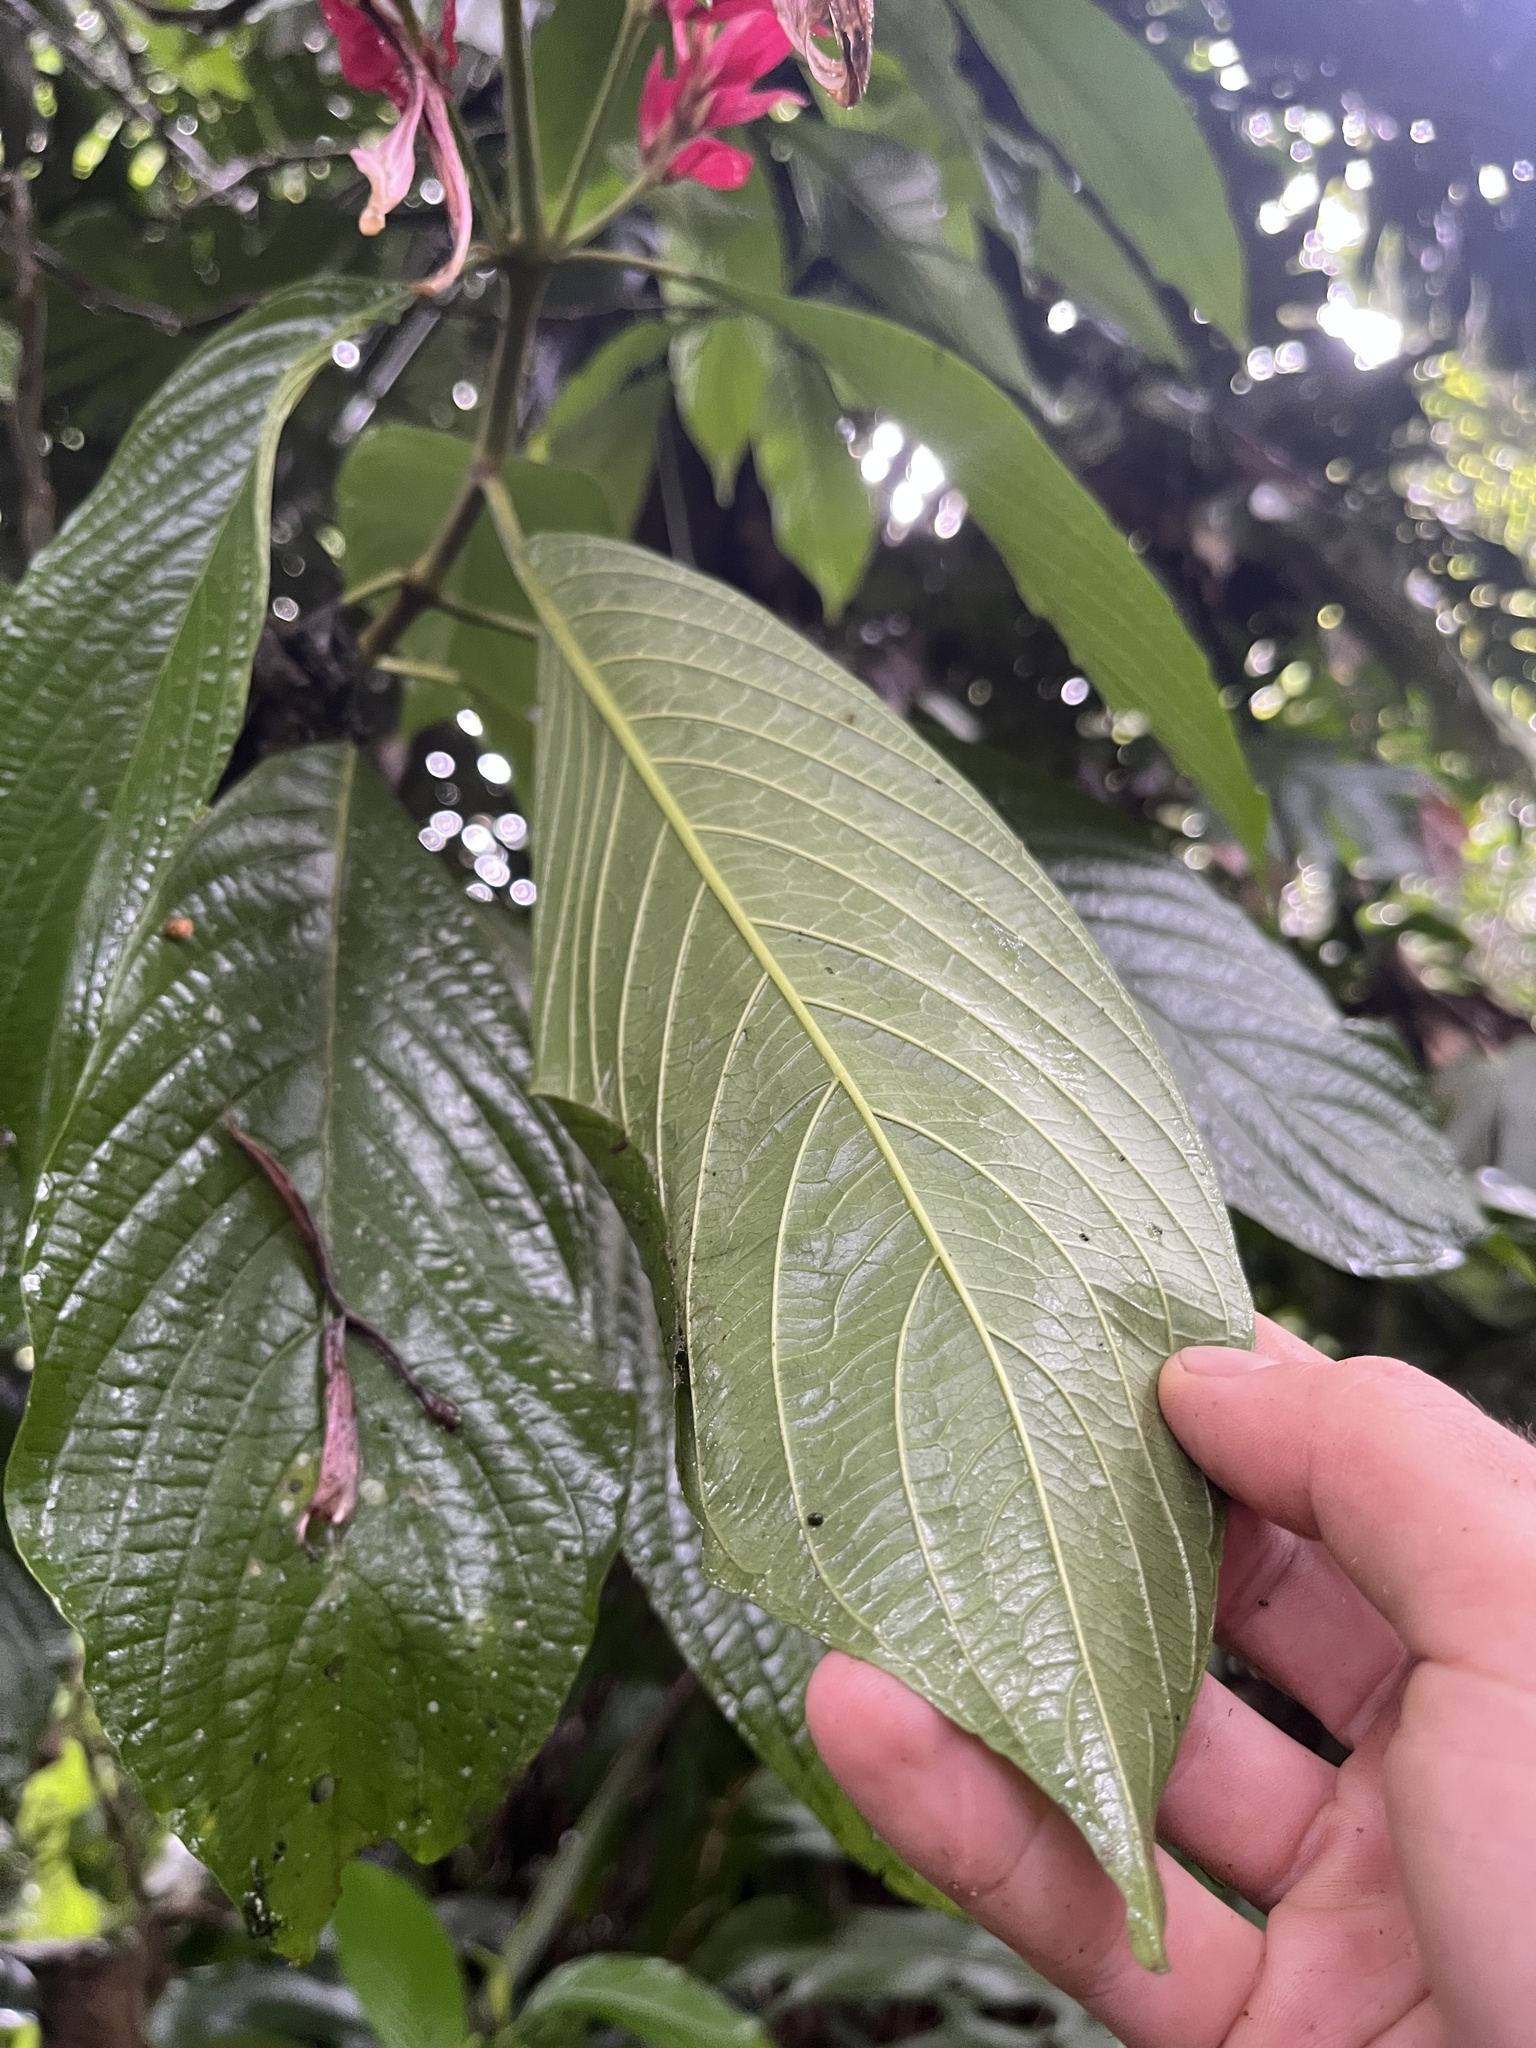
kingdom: Plantae
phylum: Tracheophyta
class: Magnoliopsida
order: Lamiales
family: Acanthaceae
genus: Megaskepasma
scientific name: Megaskepasma erythrochlamys
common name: Brazilian red-cloak
